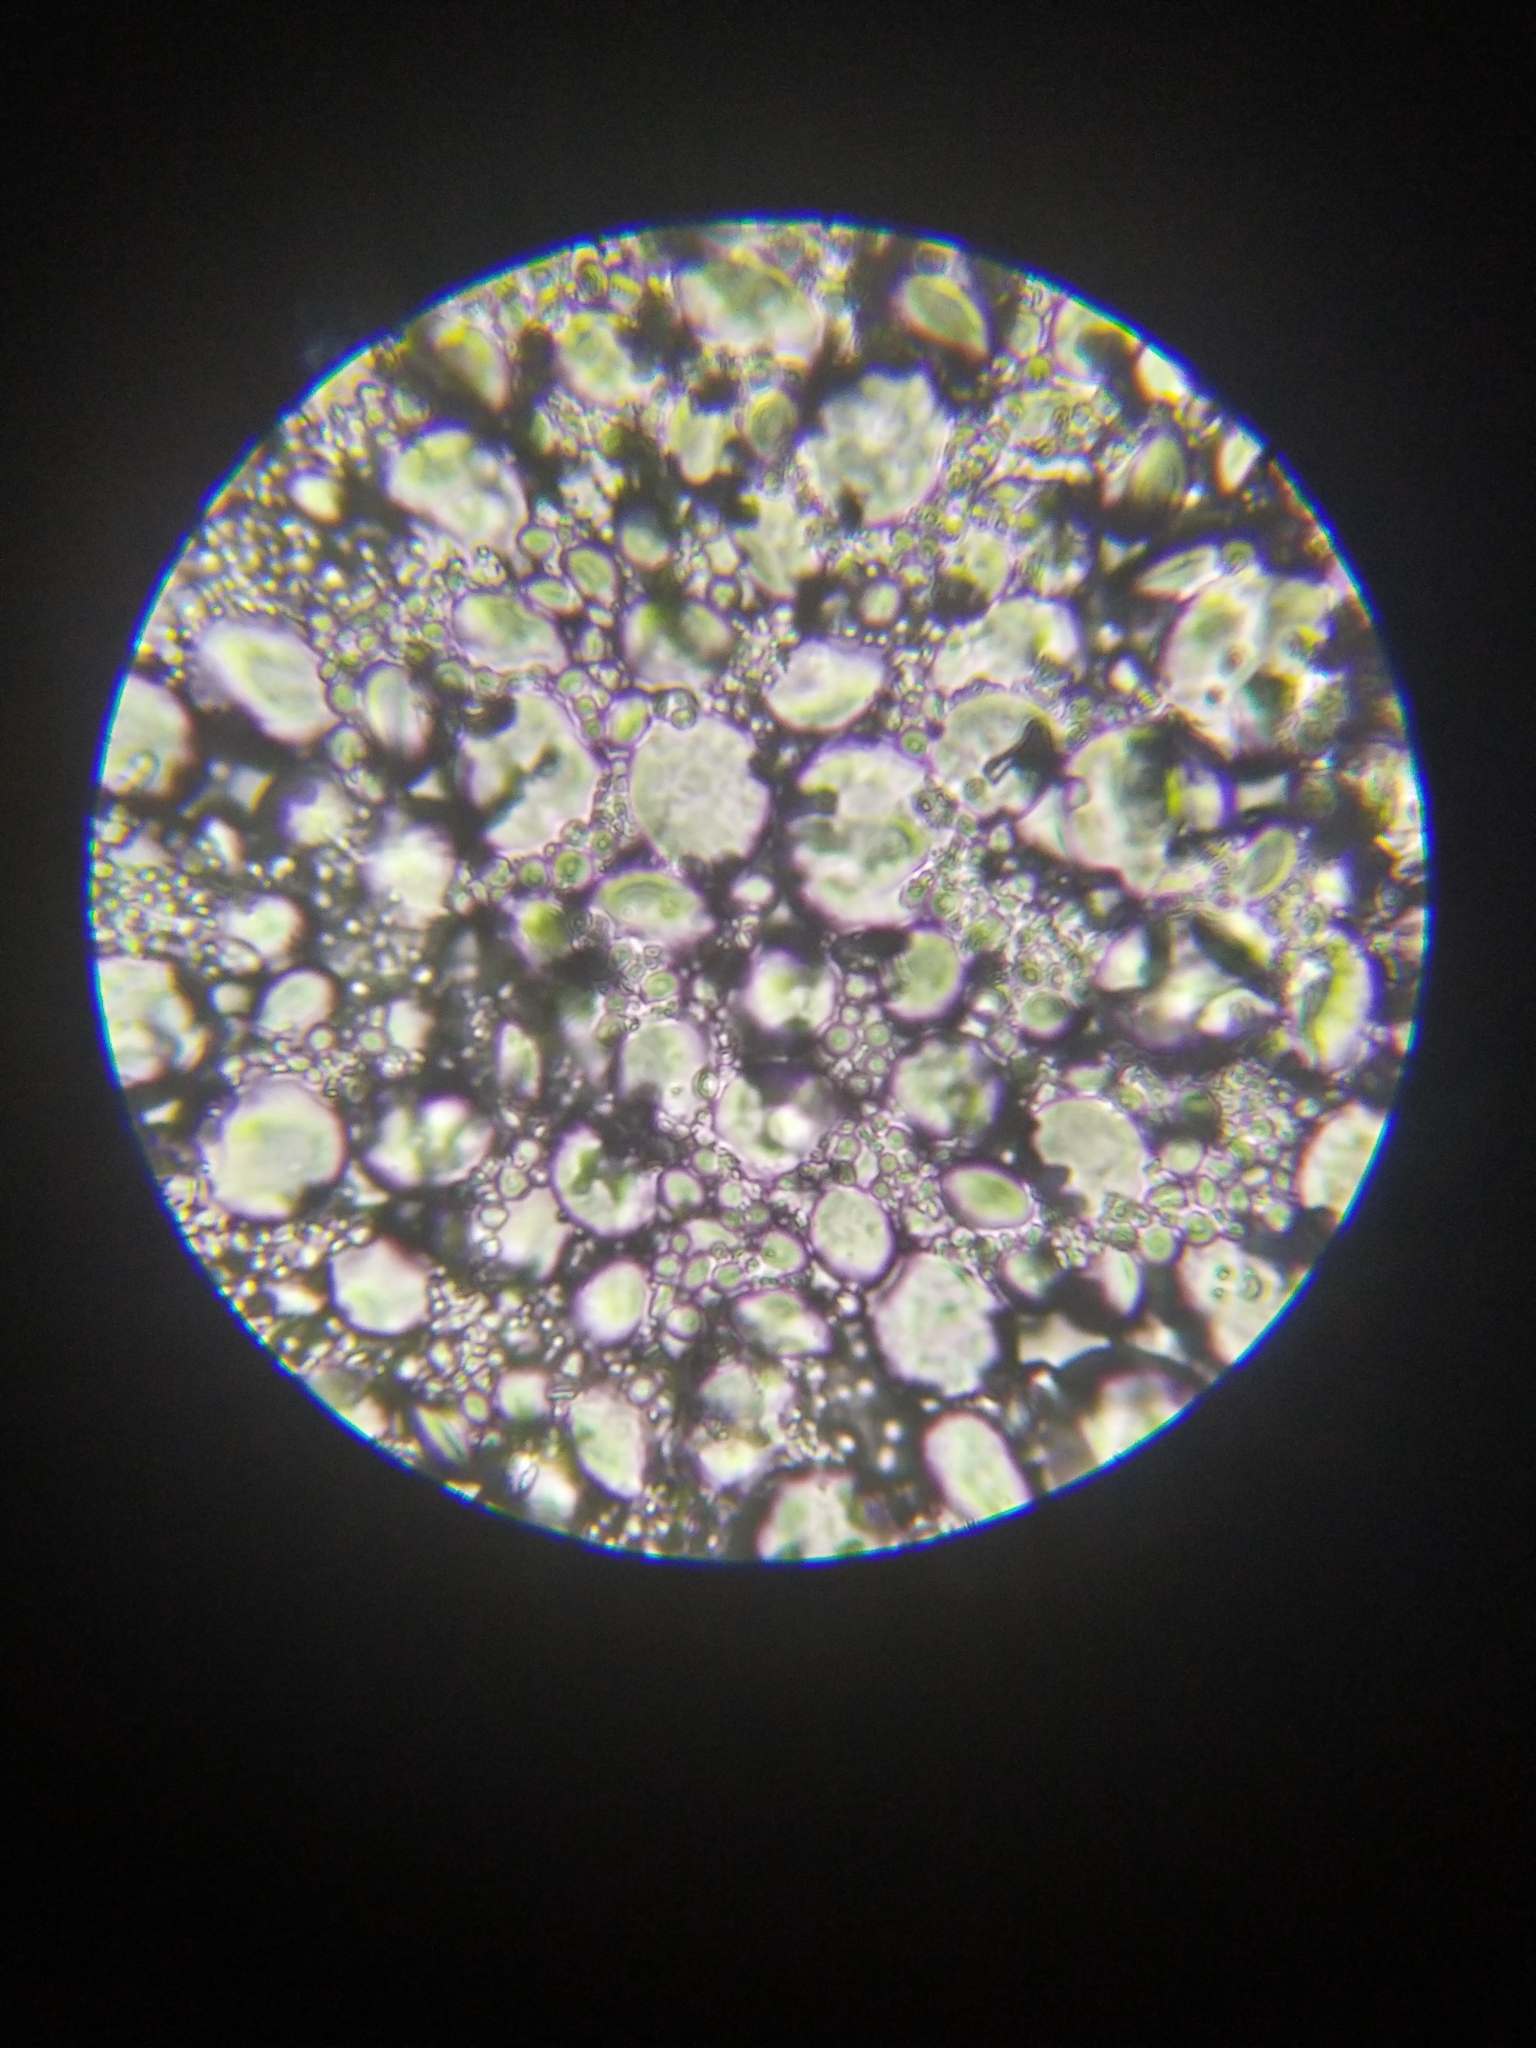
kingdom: Bacteria
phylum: Firmicutes
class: Bacilli
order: Lactobacillales
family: Lactobacillaceae
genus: Lactobacillus
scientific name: Lactobacillus sanfranciscensis
